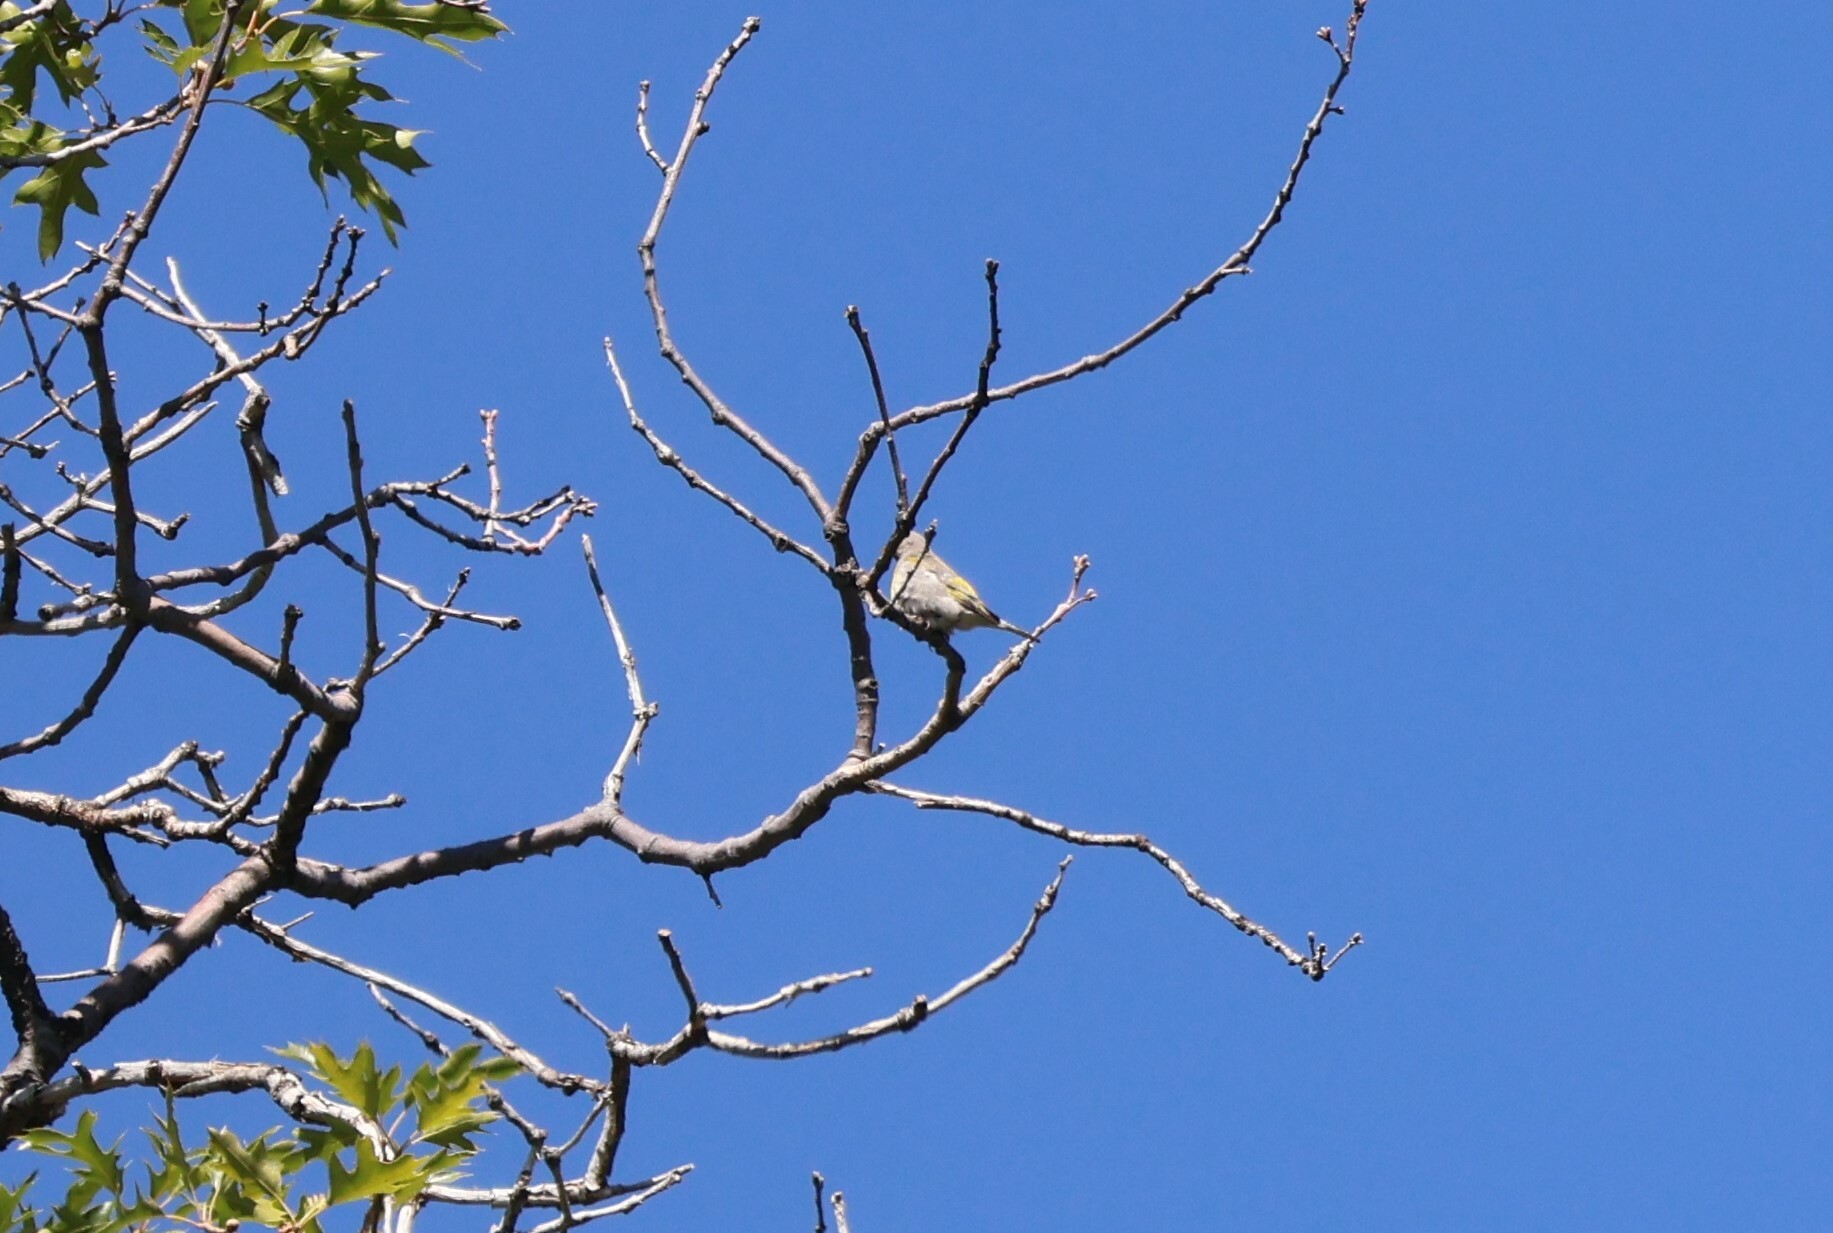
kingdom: Animalia
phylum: Chordata
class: Aves
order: Passeriformes
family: Fringillidae
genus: Spinus
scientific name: Spinus lawrencei
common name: Lawrence's goldfinch
